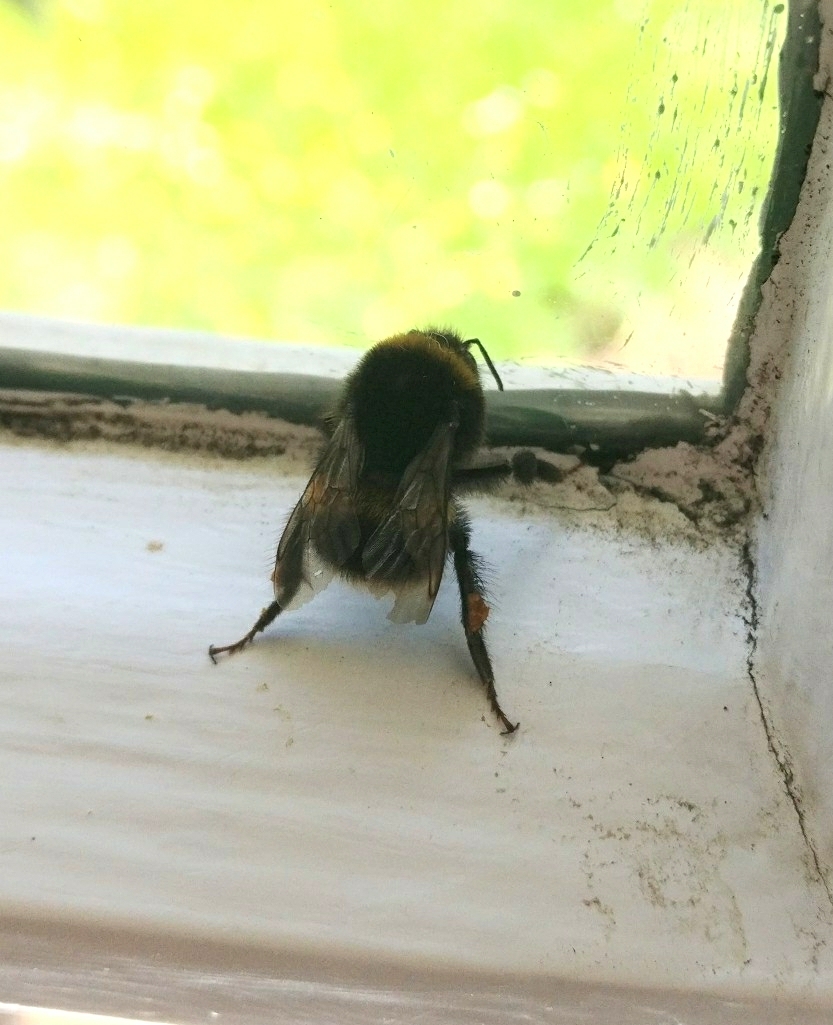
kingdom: Animalia
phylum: Arthropoda
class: Insecta
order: Hymenoptera
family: Apidae
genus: Bombus
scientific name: Bombus terrestris
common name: Buff-tailed bumblebee
